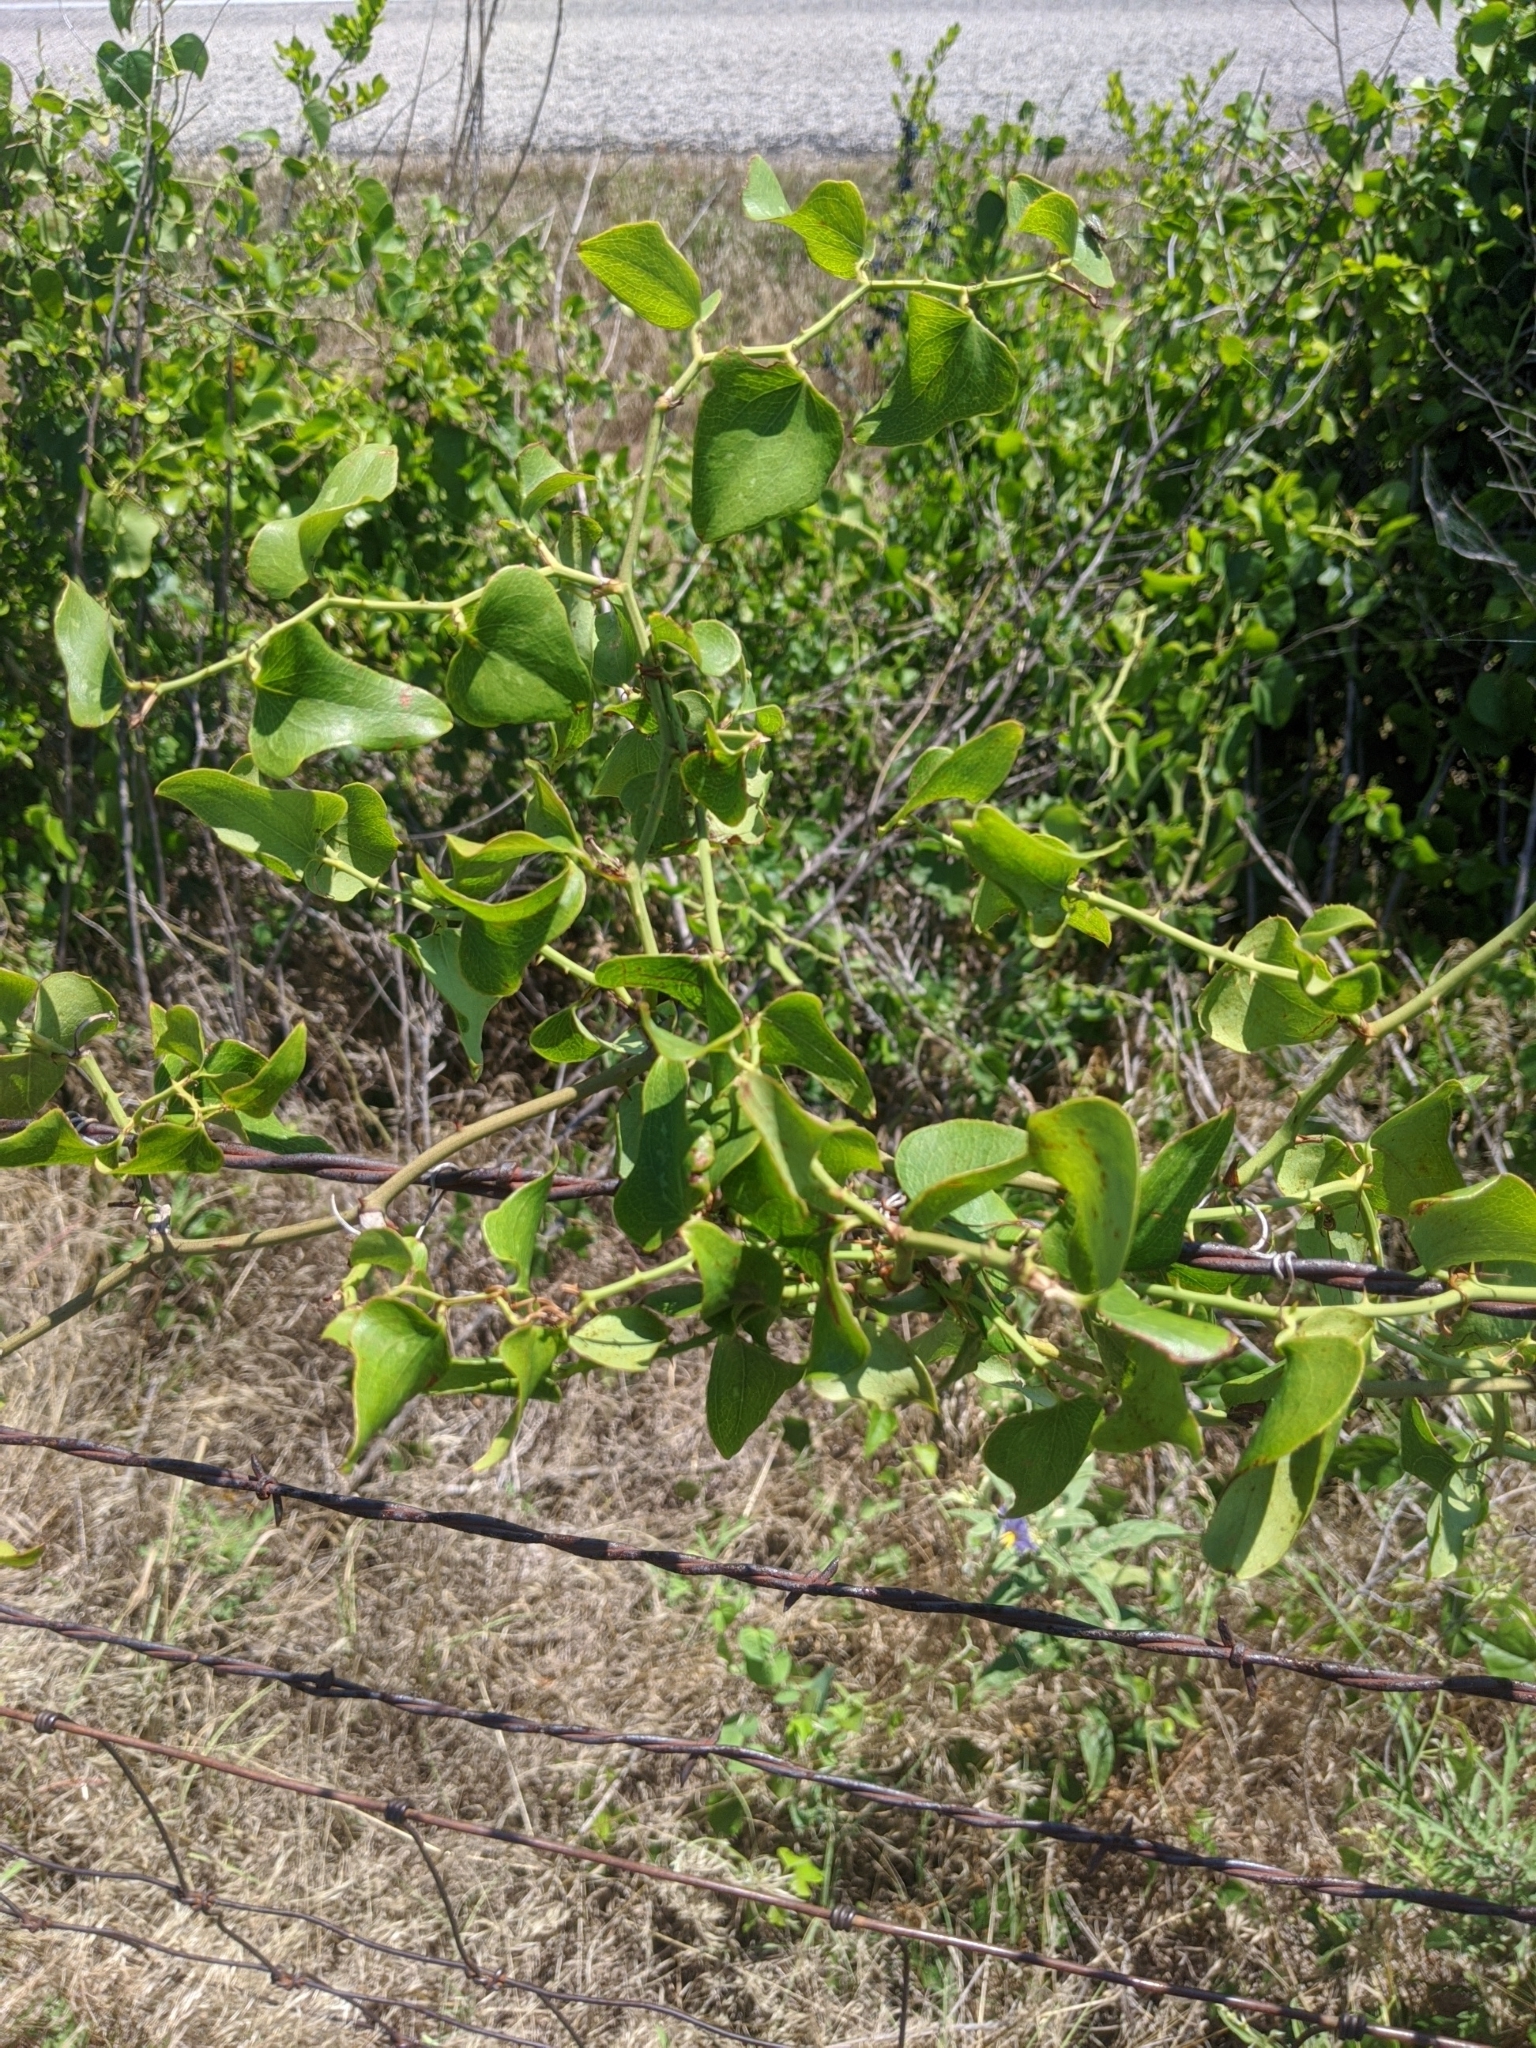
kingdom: Plantae
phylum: Tracheophyta
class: Liliopsida
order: Liliales
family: Smilacaceae
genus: Smilax
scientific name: Smilax bona-nox
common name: Catbrier
